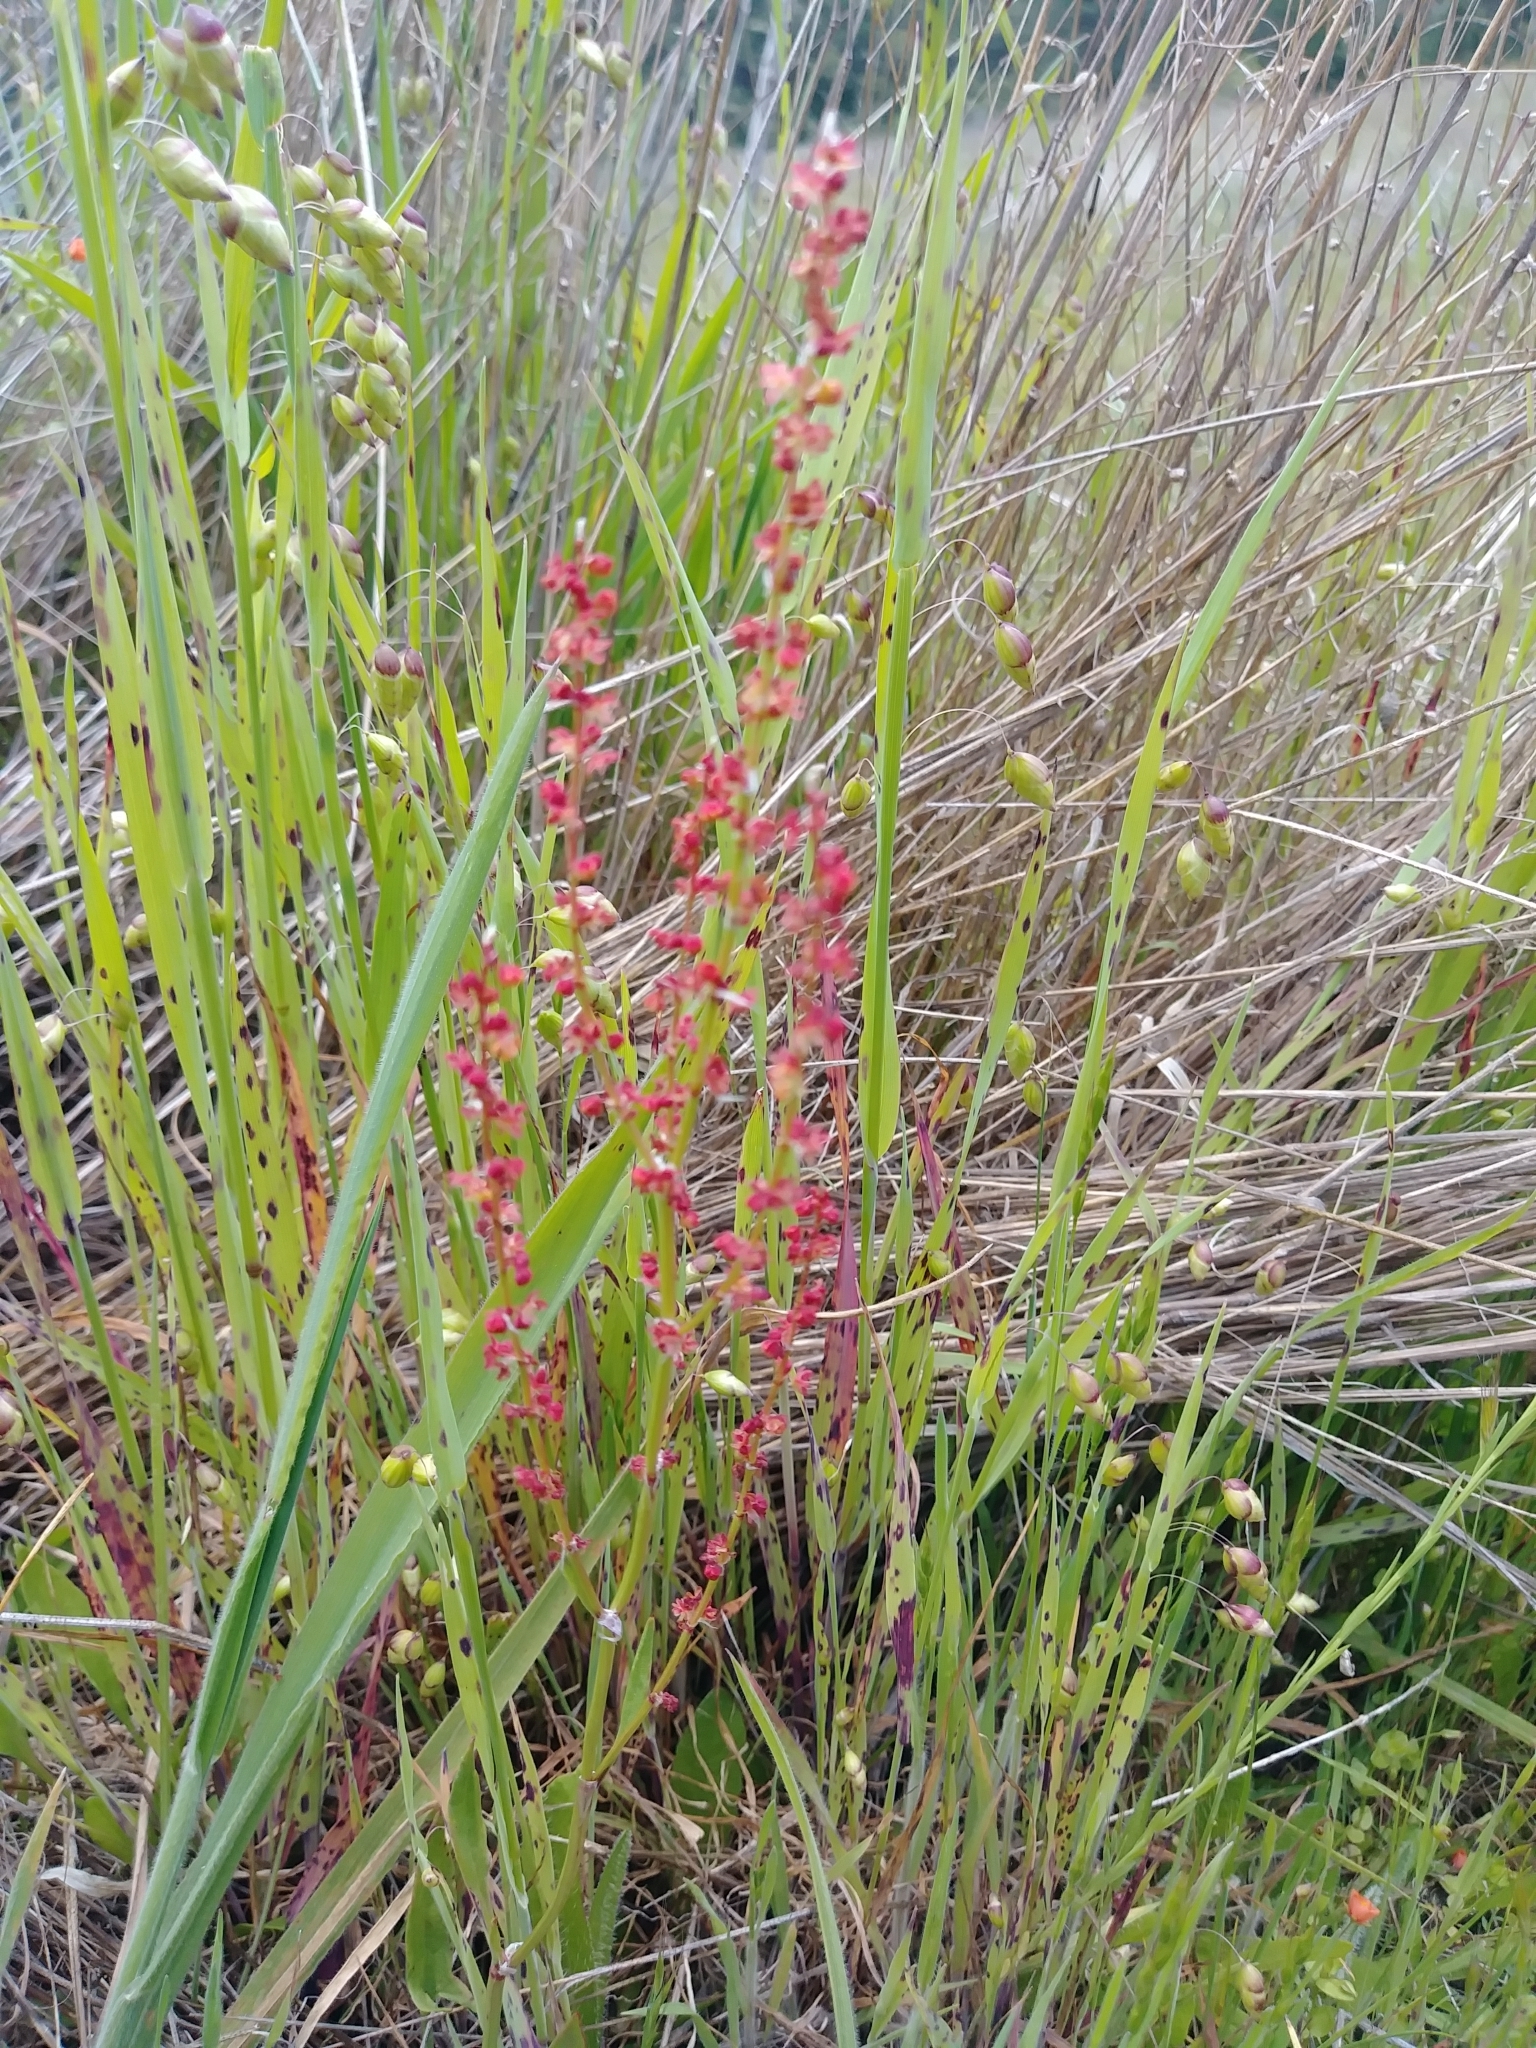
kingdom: Plantae
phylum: Tracheophyta
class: Magnoliopsida
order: Caryophyllales
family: Polygonaceae
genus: Rumex
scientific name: Rumex acetosella
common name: Common sheep sorrel
